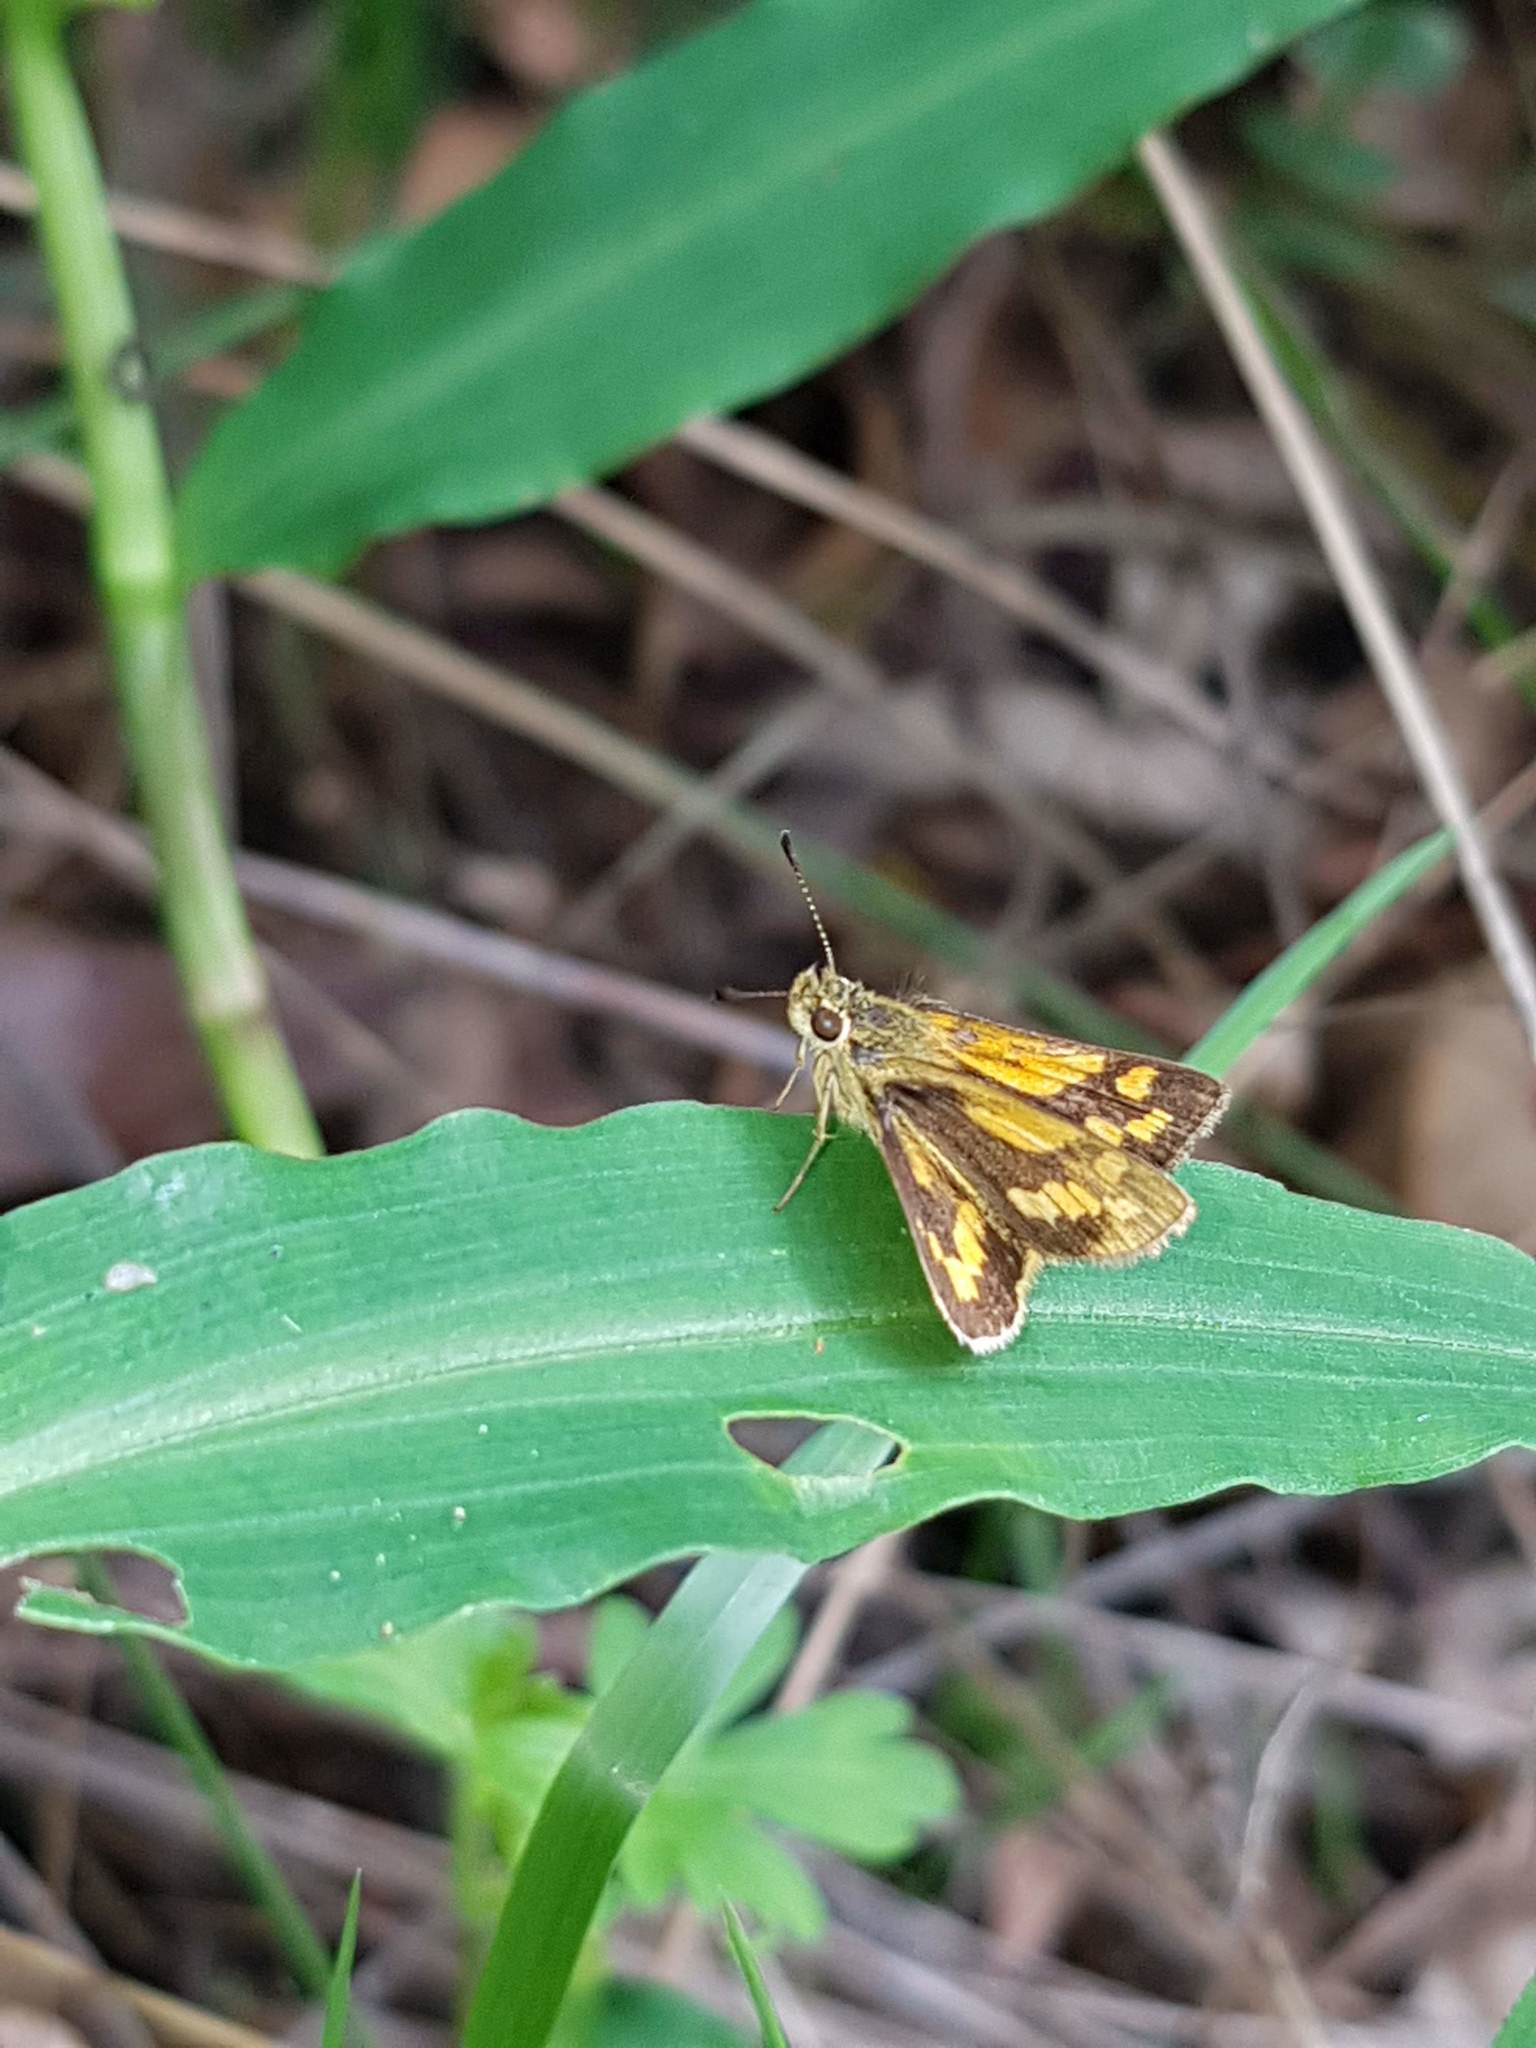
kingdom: Animalia
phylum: Arthropoda
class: Insecta
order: Lepidoptera
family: Hesperiidae
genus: Ocybadistes
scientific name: Ocybadistes walkeri
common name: Yellow-banded dart
